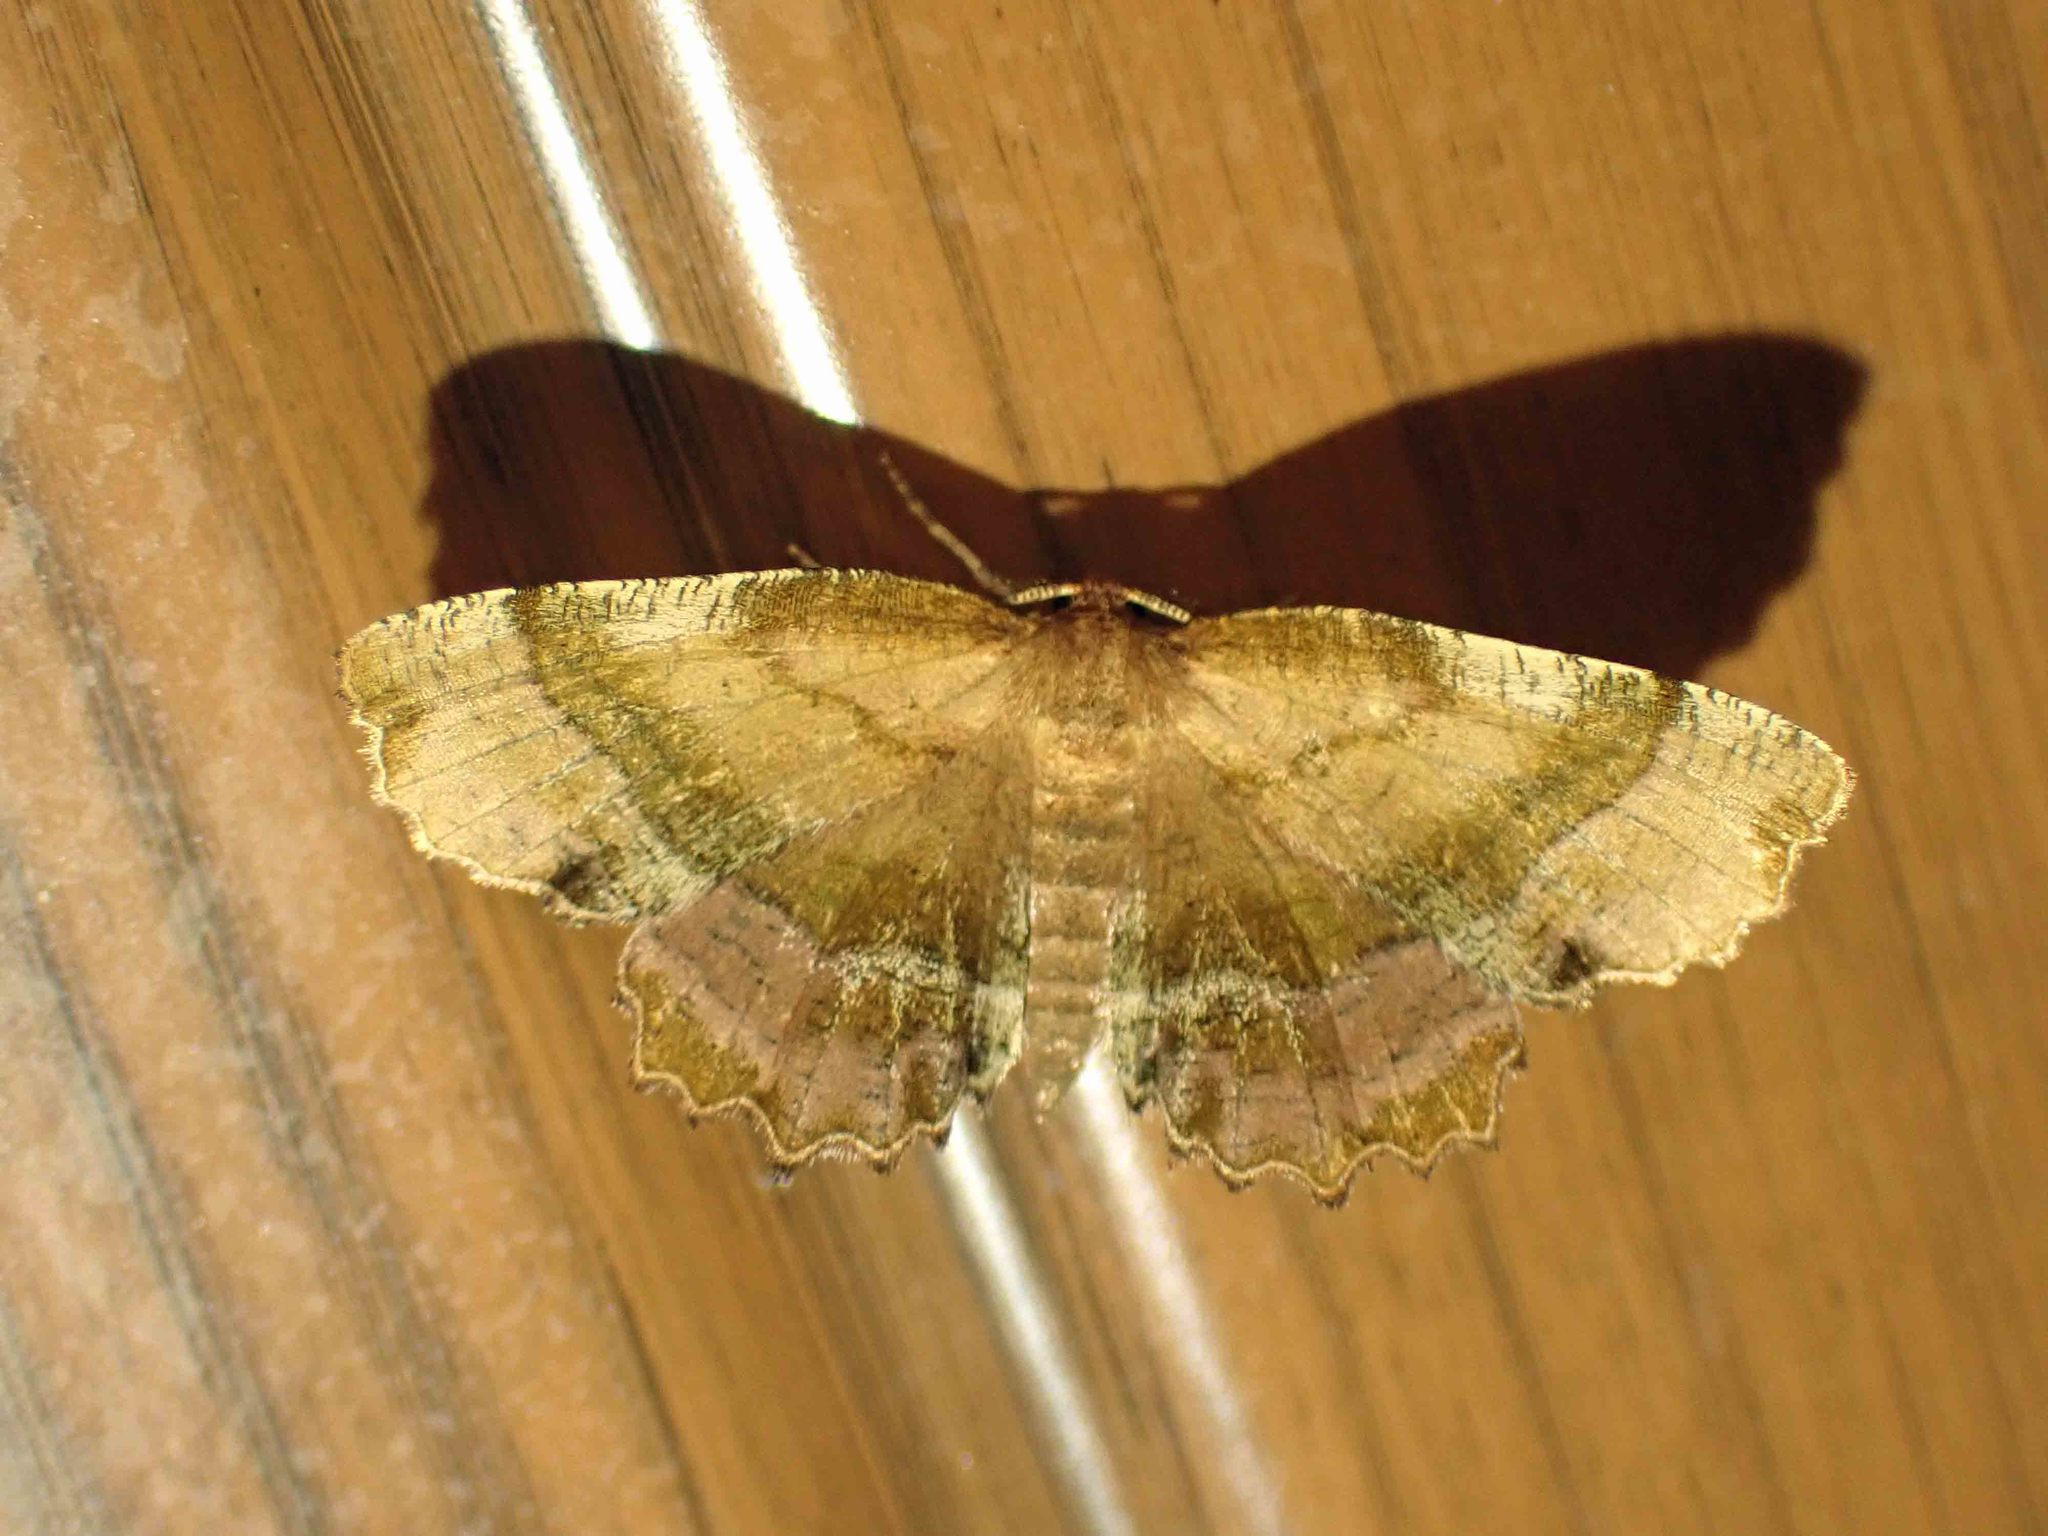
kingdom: Animalia
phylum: Arthropoda
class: Insecta
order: Lepidoptera
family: Geometridae
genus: Cepphis
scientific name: Cepphis armataria
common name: Scallop moth
